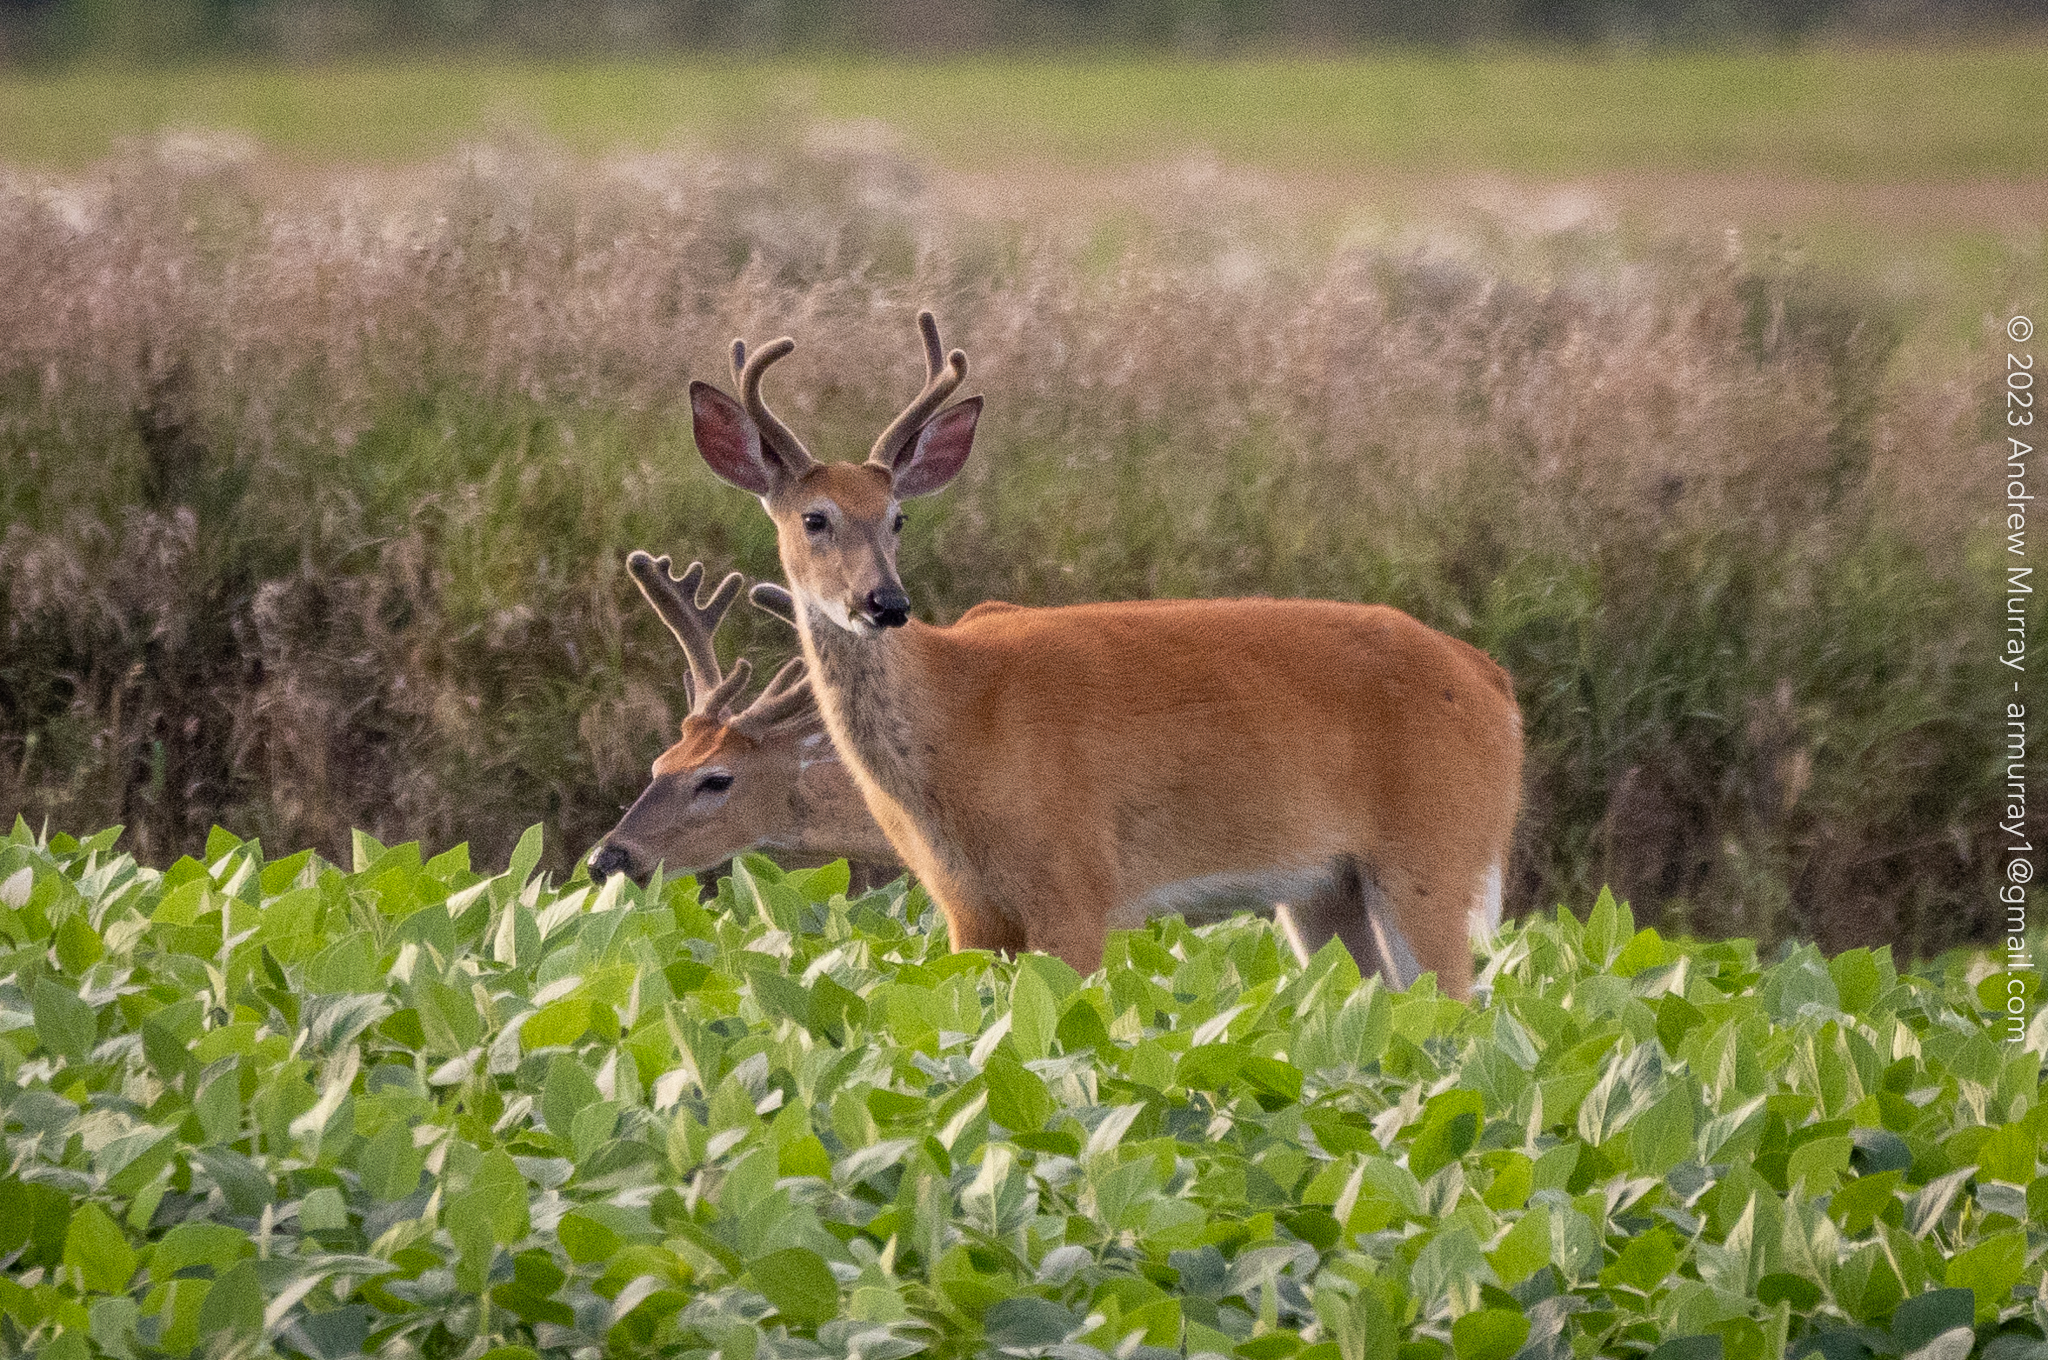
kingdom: Animalia
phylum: Chordata
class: Mammalia
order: Artiodactyla
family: Cervidae
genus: Odocoileus
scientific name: Odocoileus virginianus
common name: White-tailed deer
